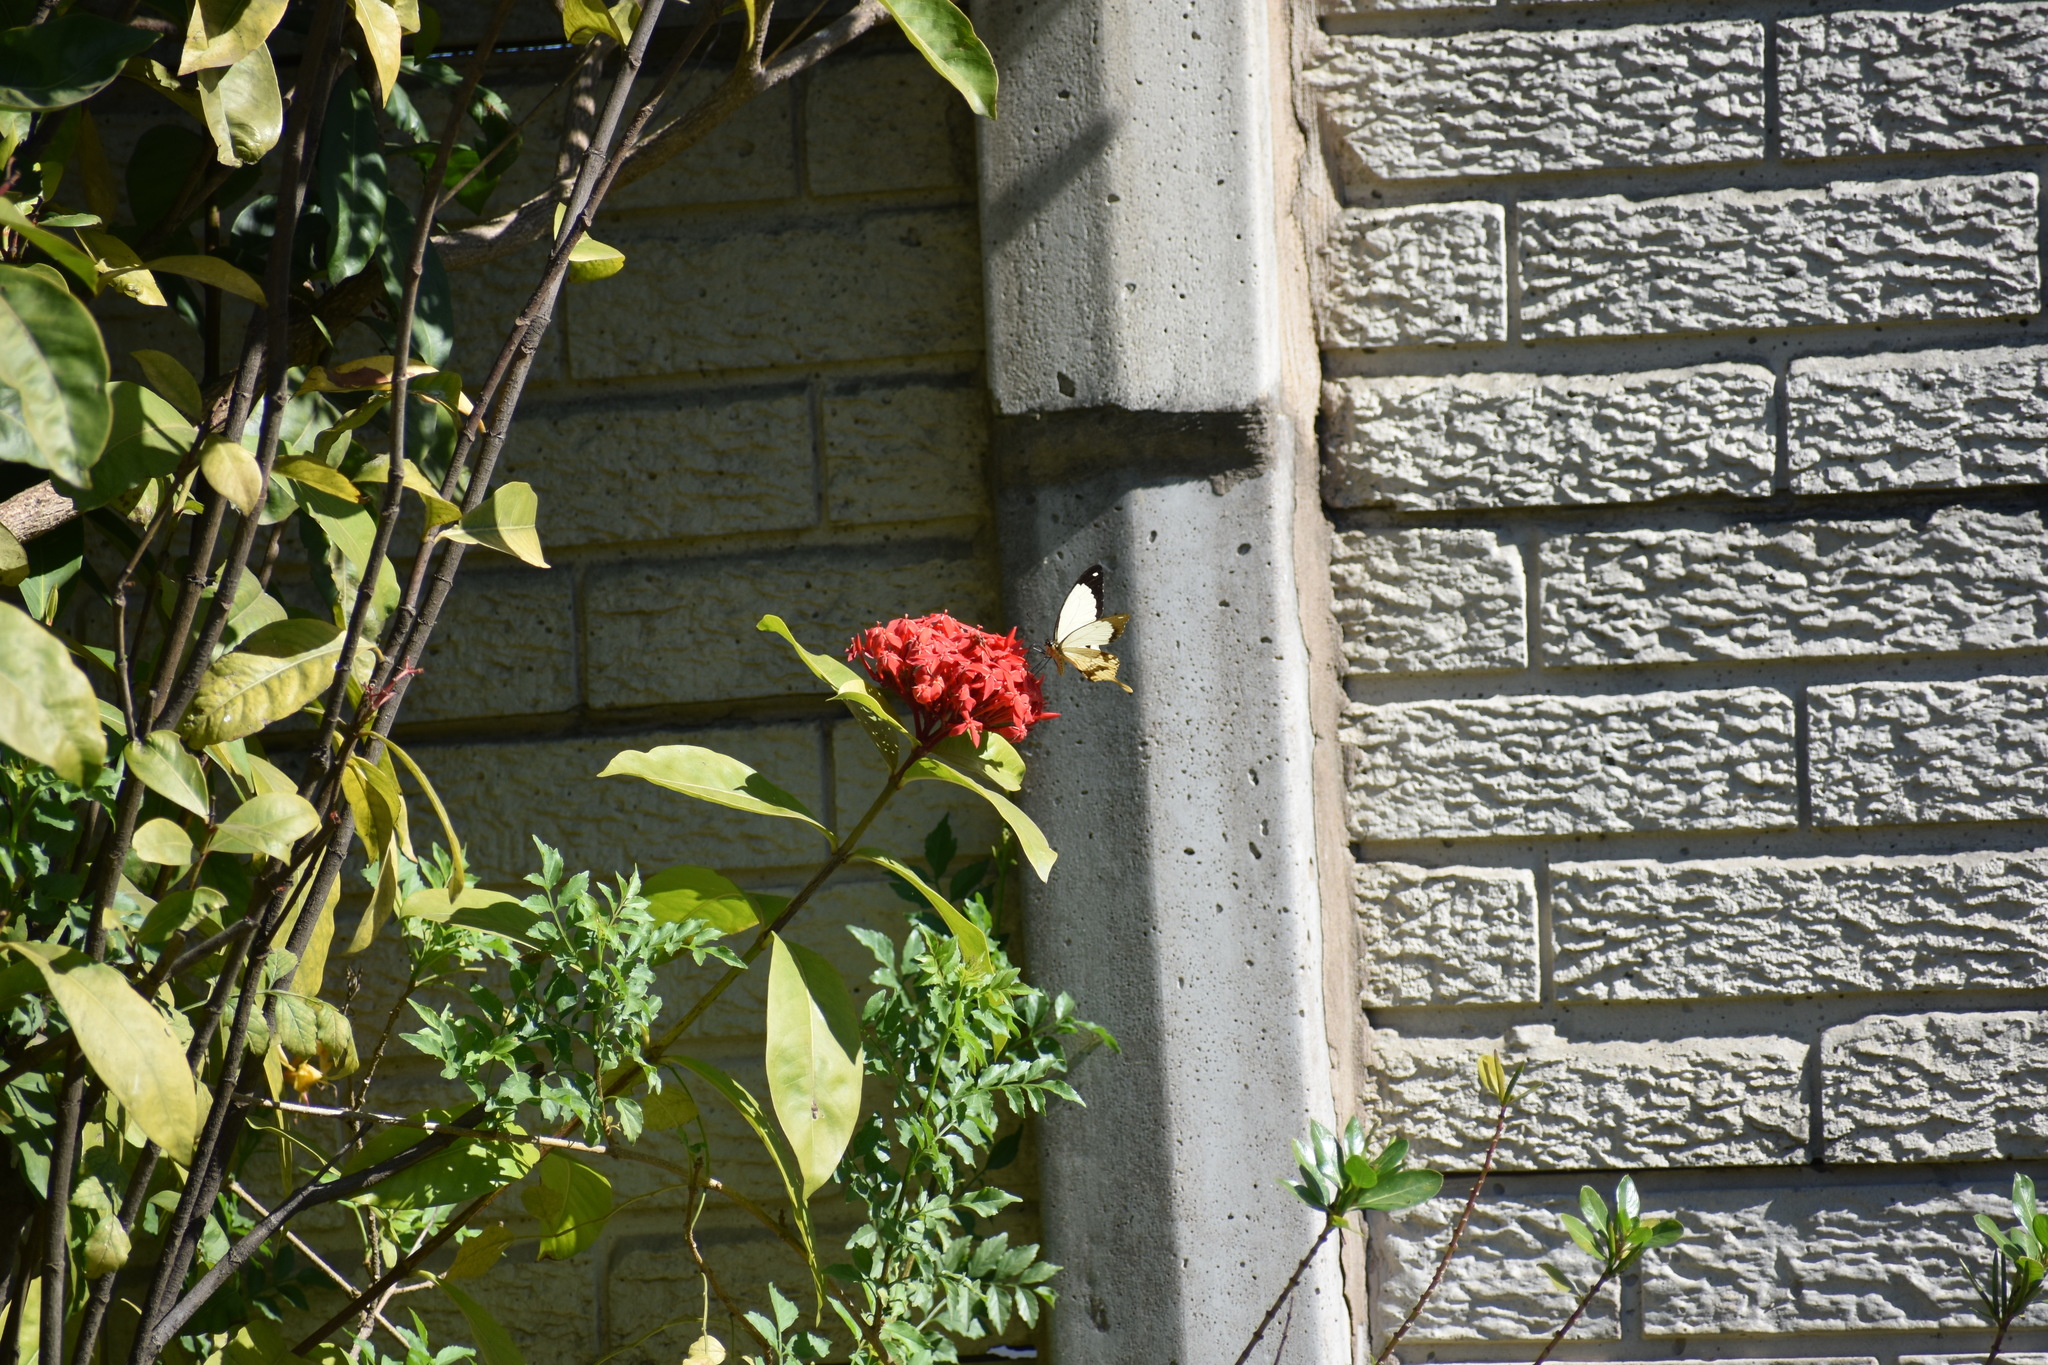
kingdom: Animalia
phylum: Arthropoda
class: Insecta
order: Lepidoptera
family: Papilionidae
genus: Papilio
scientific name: Papilio dardanus
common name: Flying handkerchief
